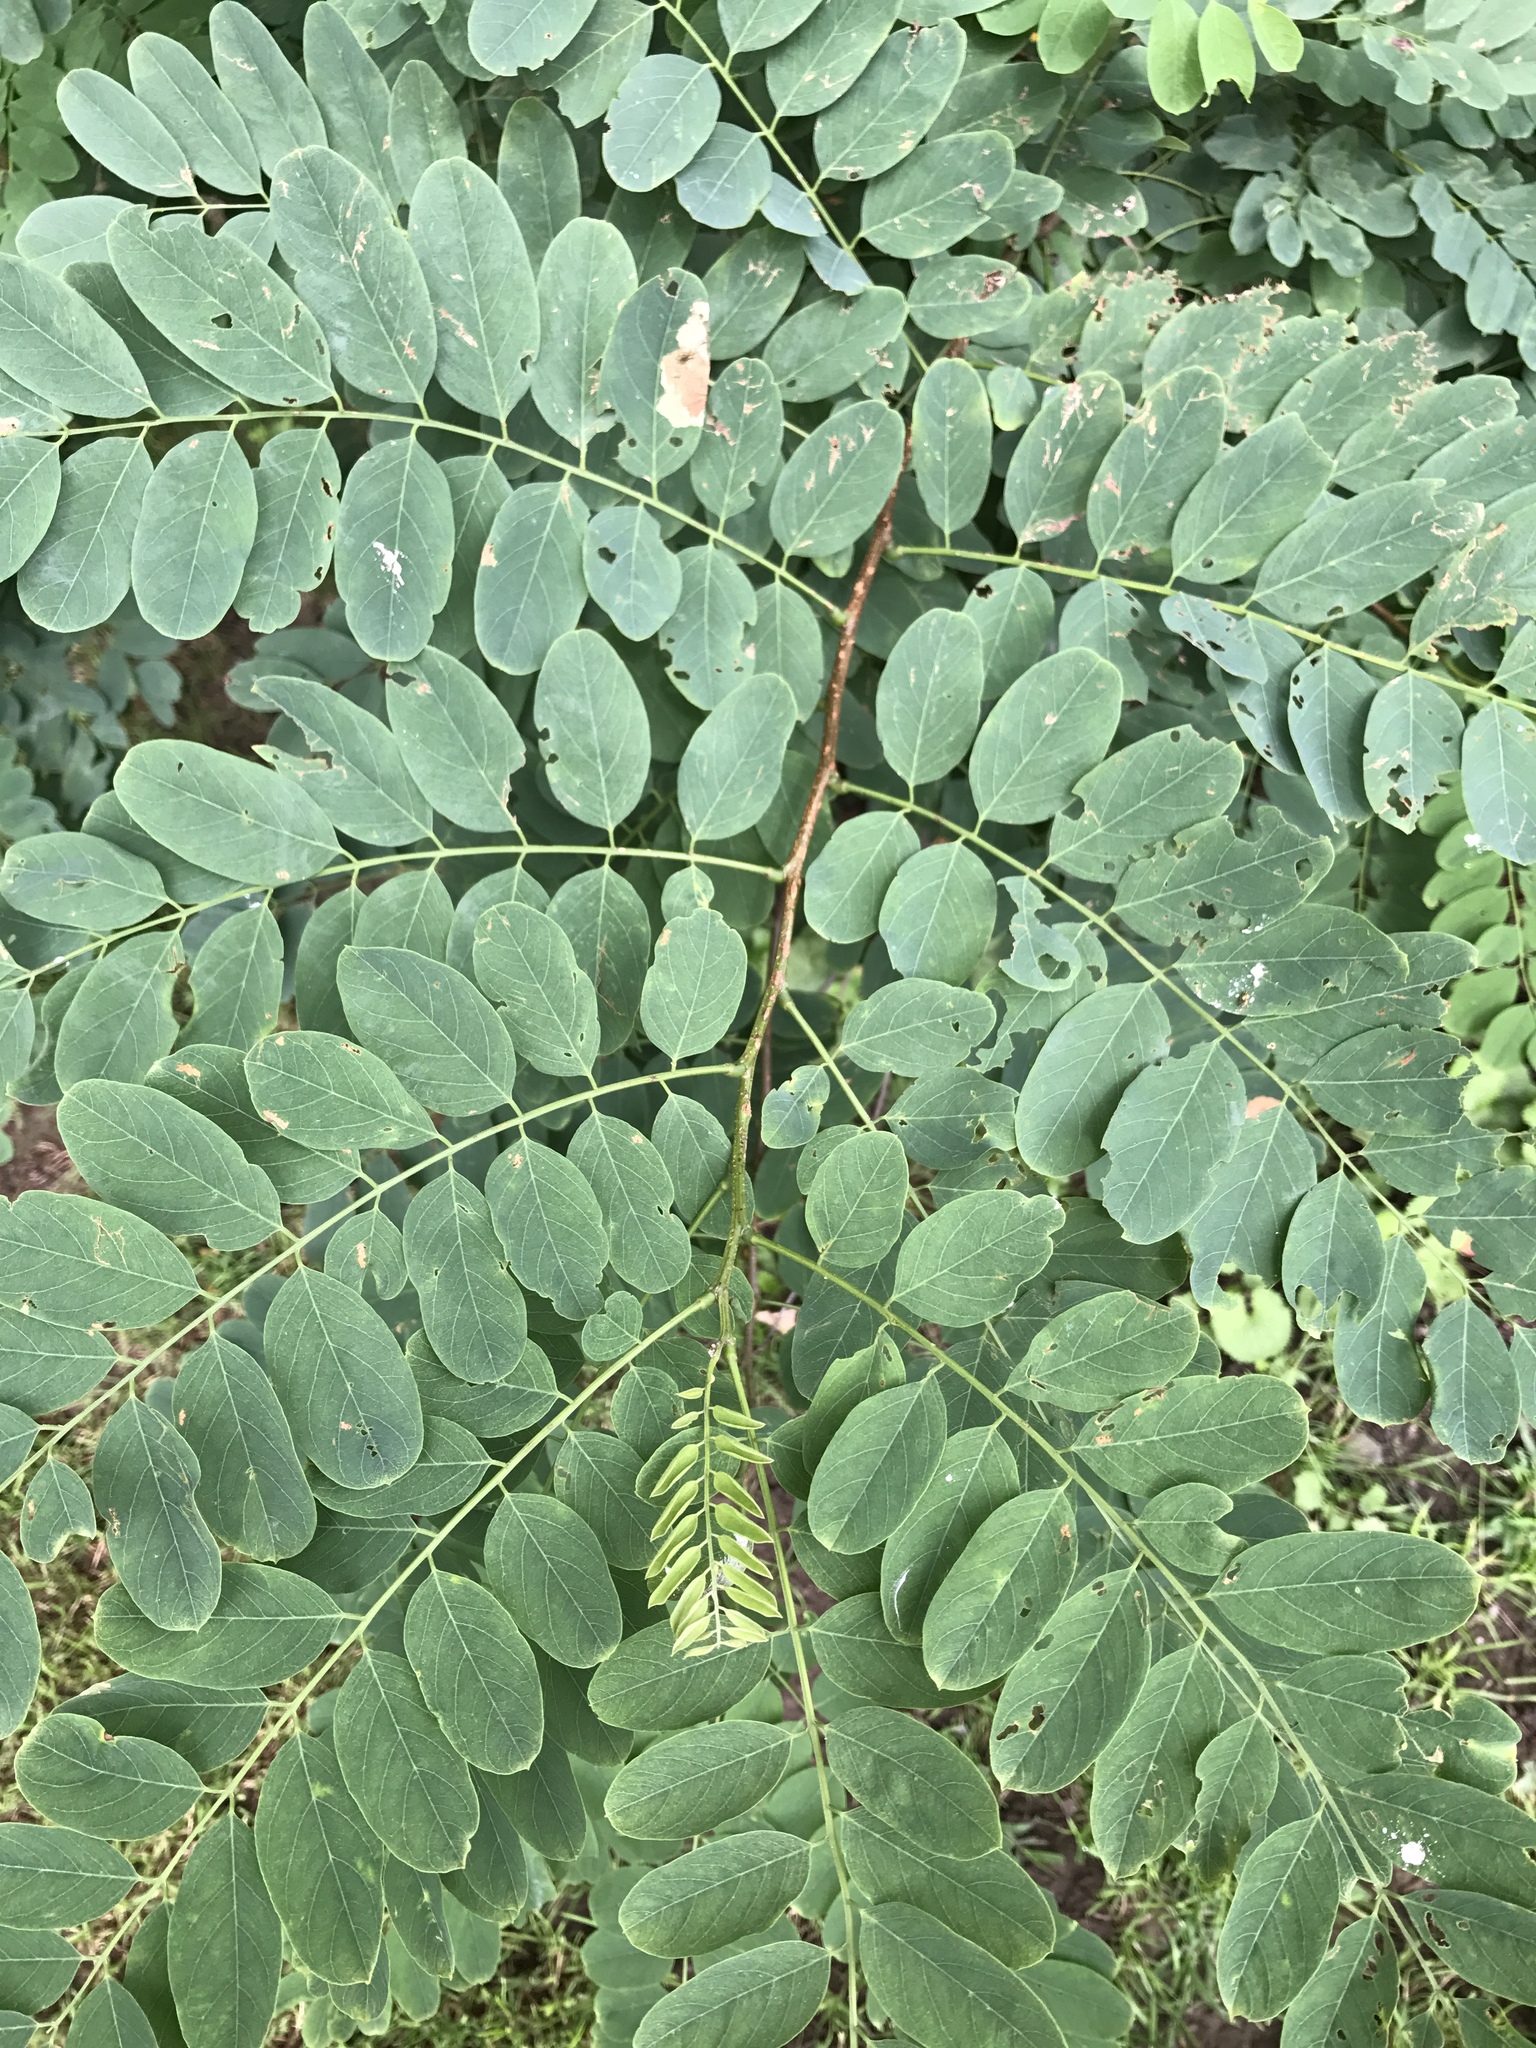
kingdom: Plantae
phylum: Tracheophyta
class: Magnoliopsida
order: Fabales
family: Fabaceae
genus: Robinia
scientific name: Robinia pseudoacacia
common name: Black locust
